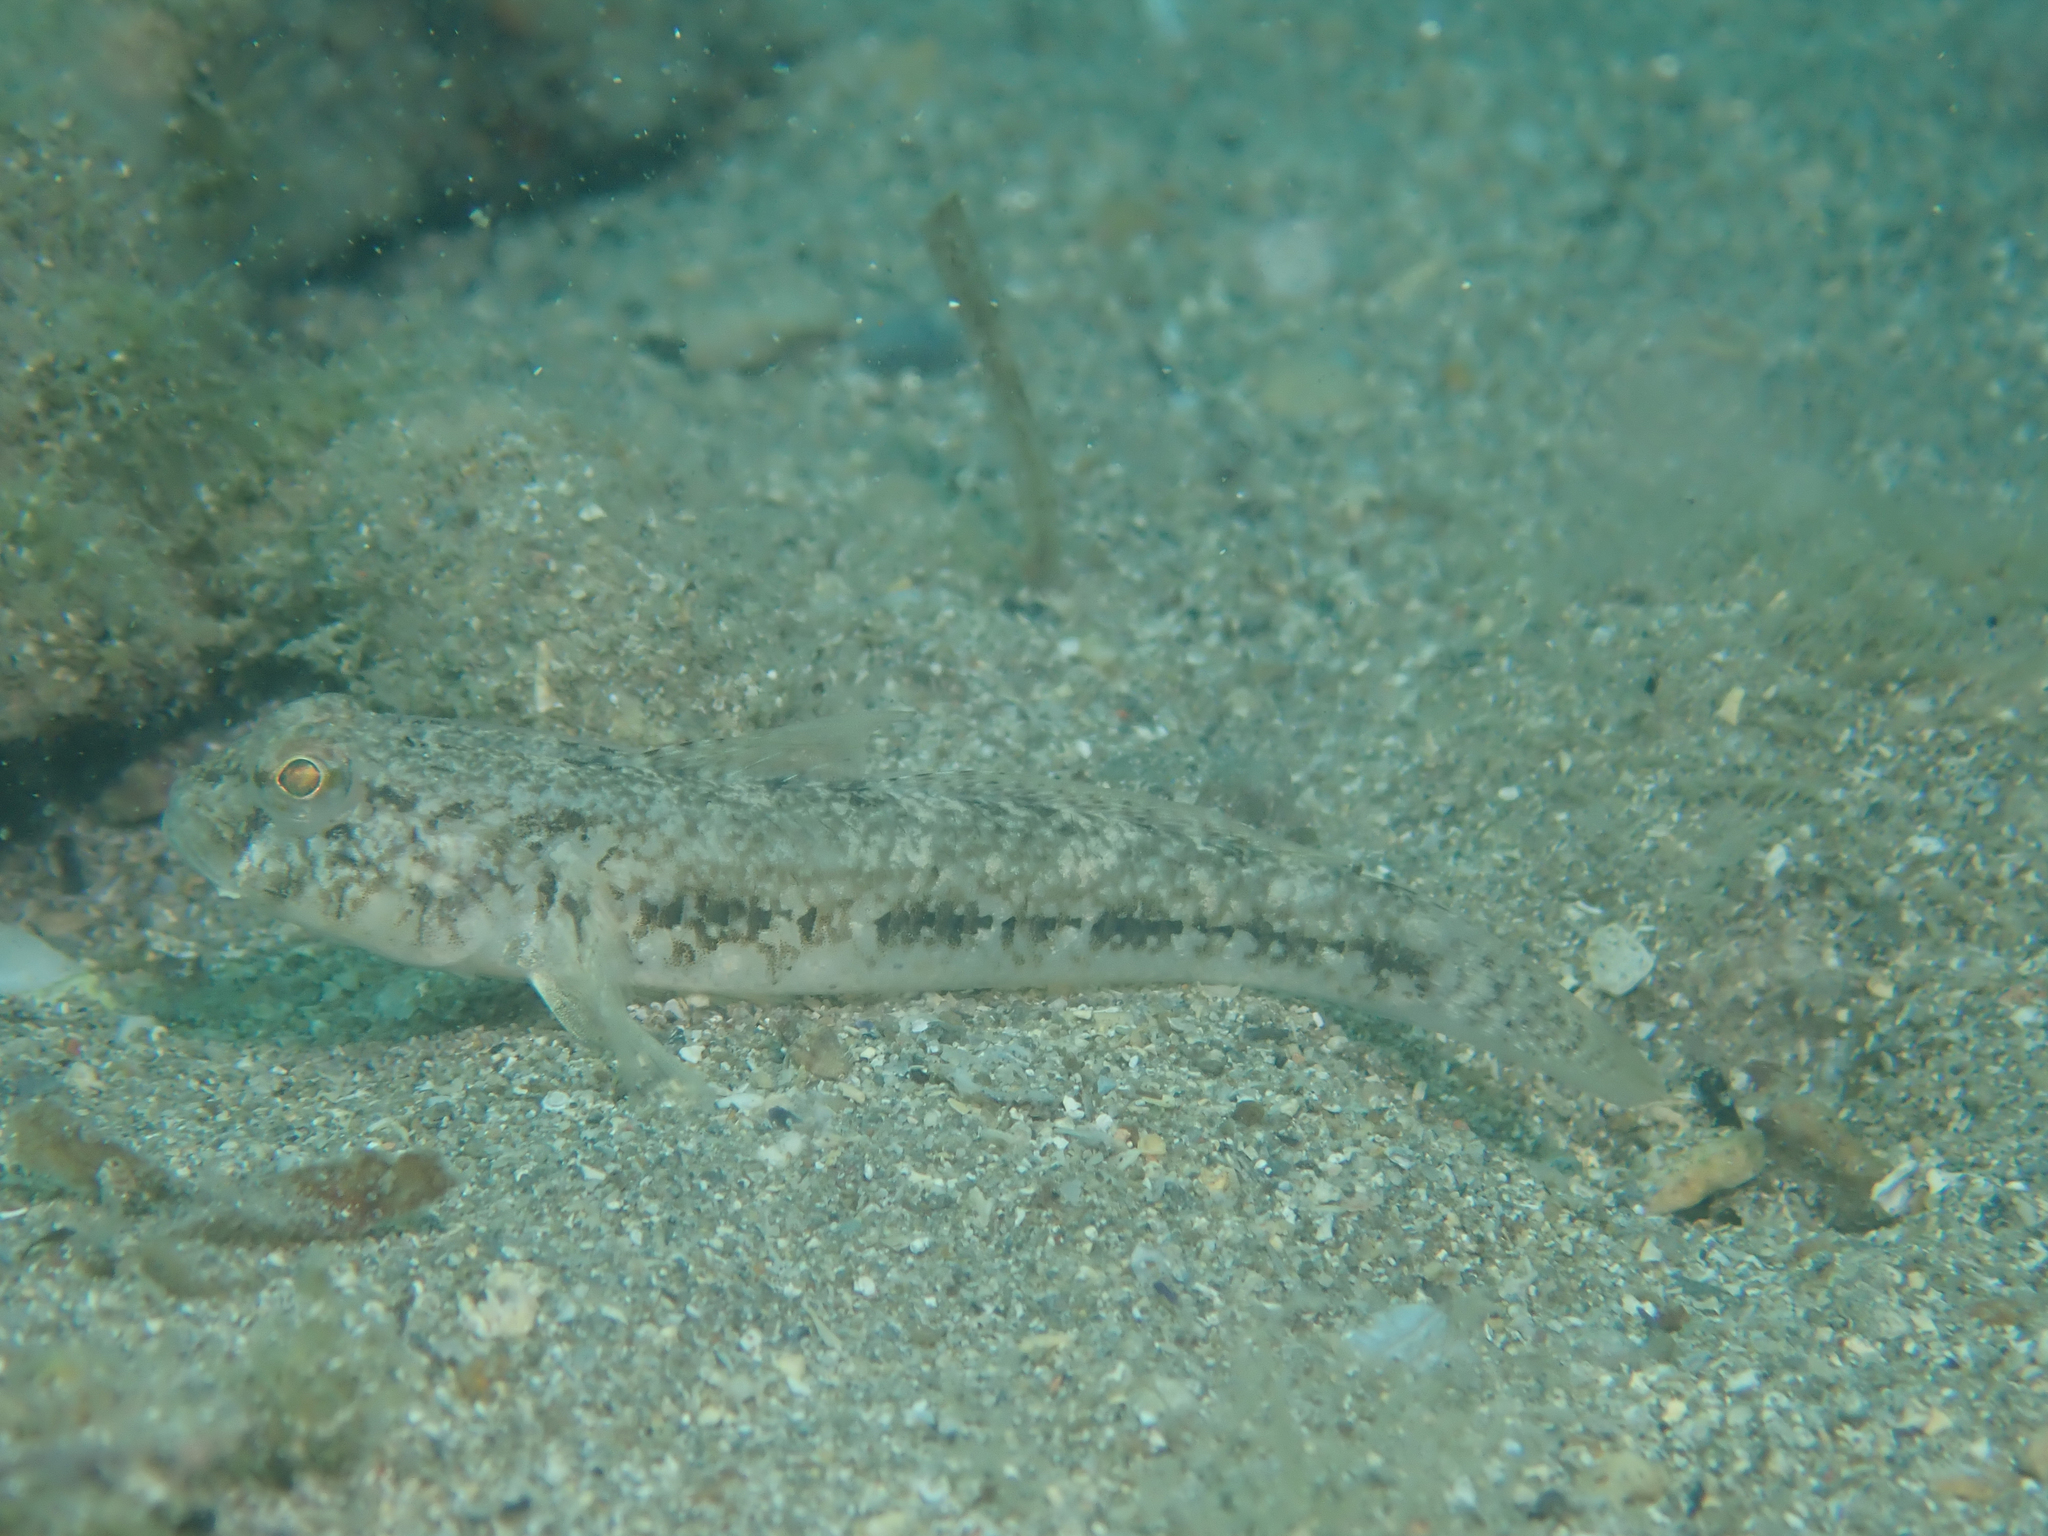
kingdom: Animalia
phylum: Chordata
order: Perciformes
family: Gobiidae
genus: Gobius
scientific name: Gobius niger
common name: Black goby
